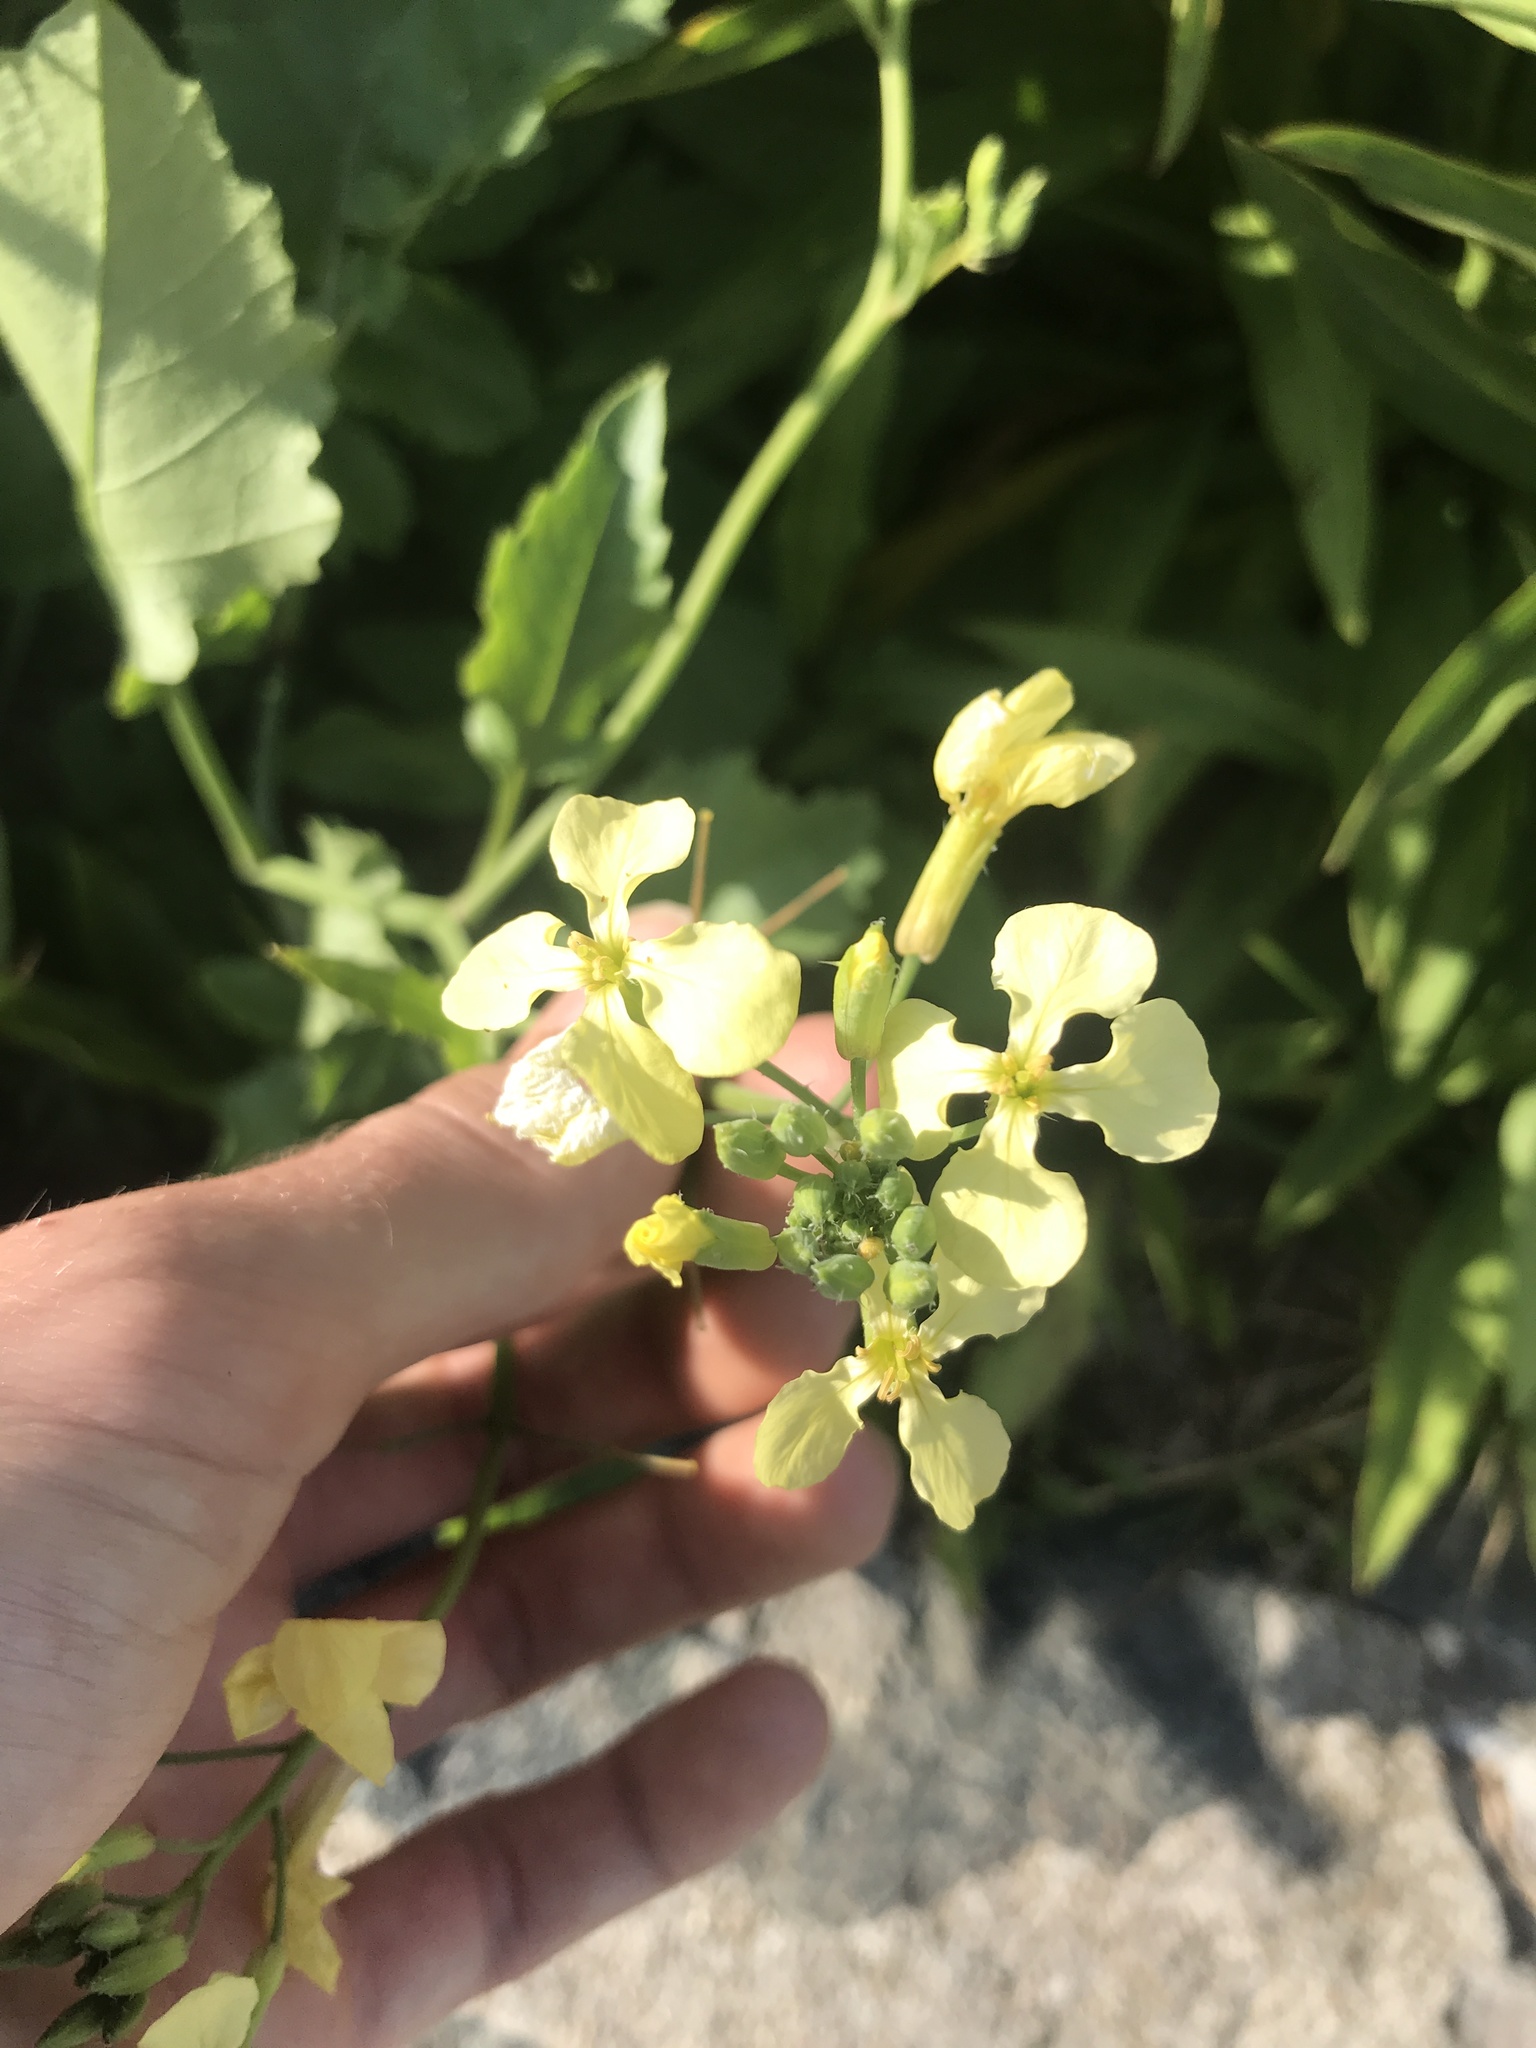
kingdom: Plantae
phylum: Tracheophyta
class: Magnoliopsida
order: Brassicales
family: Brassicaceae
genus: Raphanus
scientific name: Raphanus raphanistrum
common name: Wild radish
